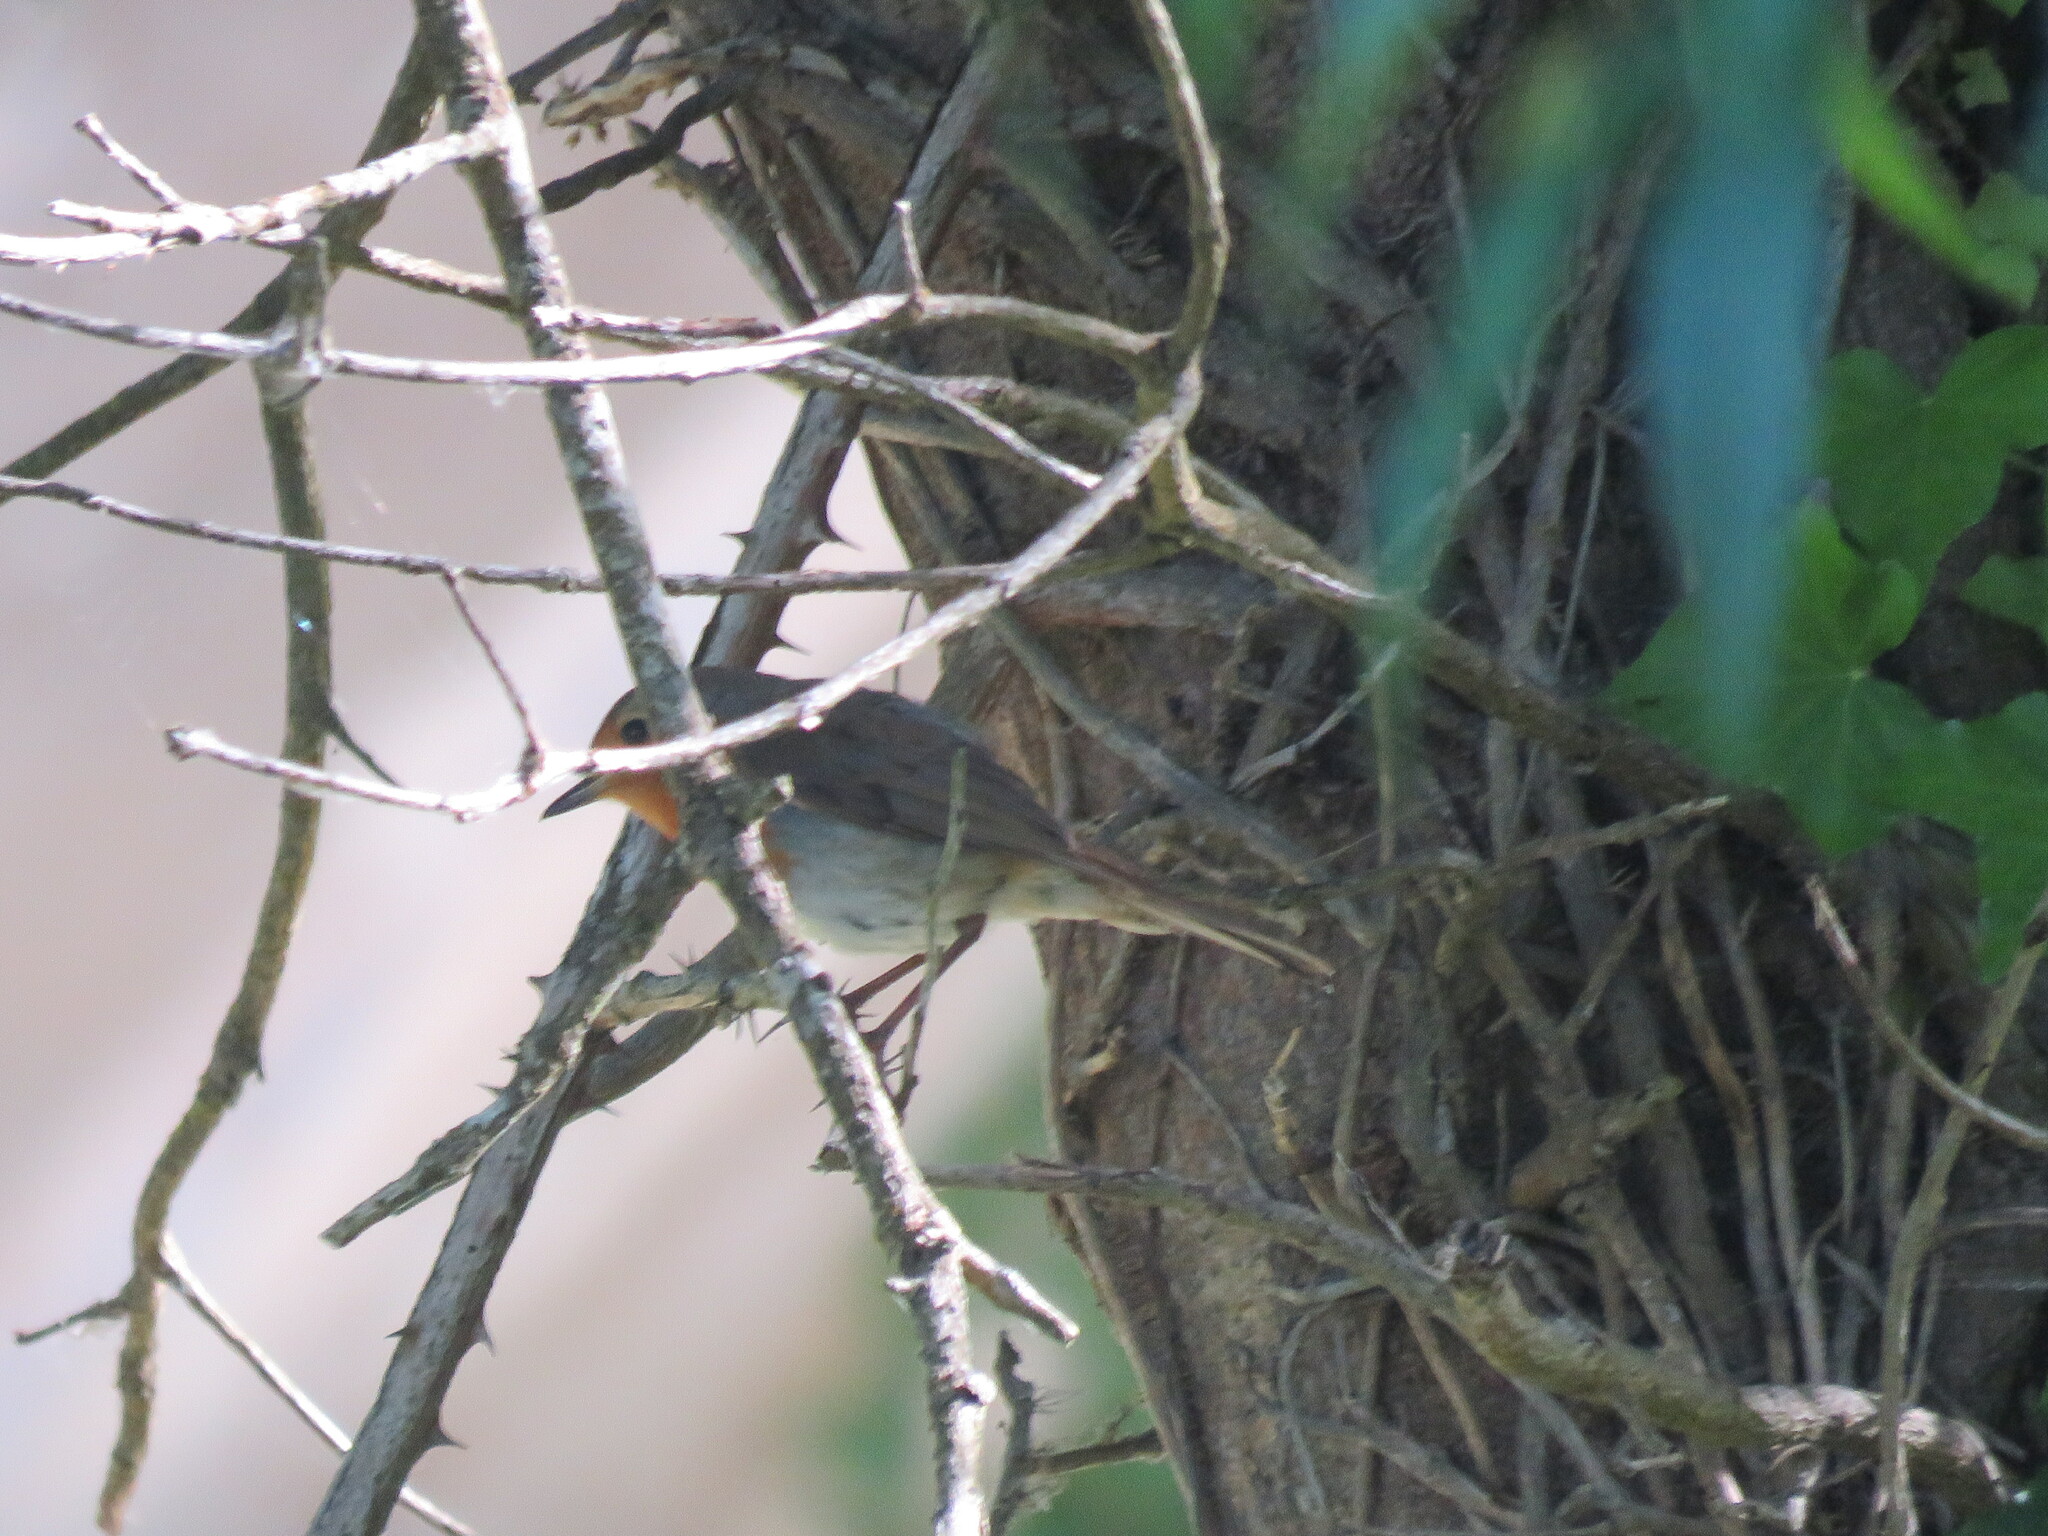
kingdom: Animalia
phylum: Chordata
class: Aves
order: Passeriformes
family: Muscicapidae
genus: Erithacus
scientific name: Erithacus rubecula
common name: European robin
